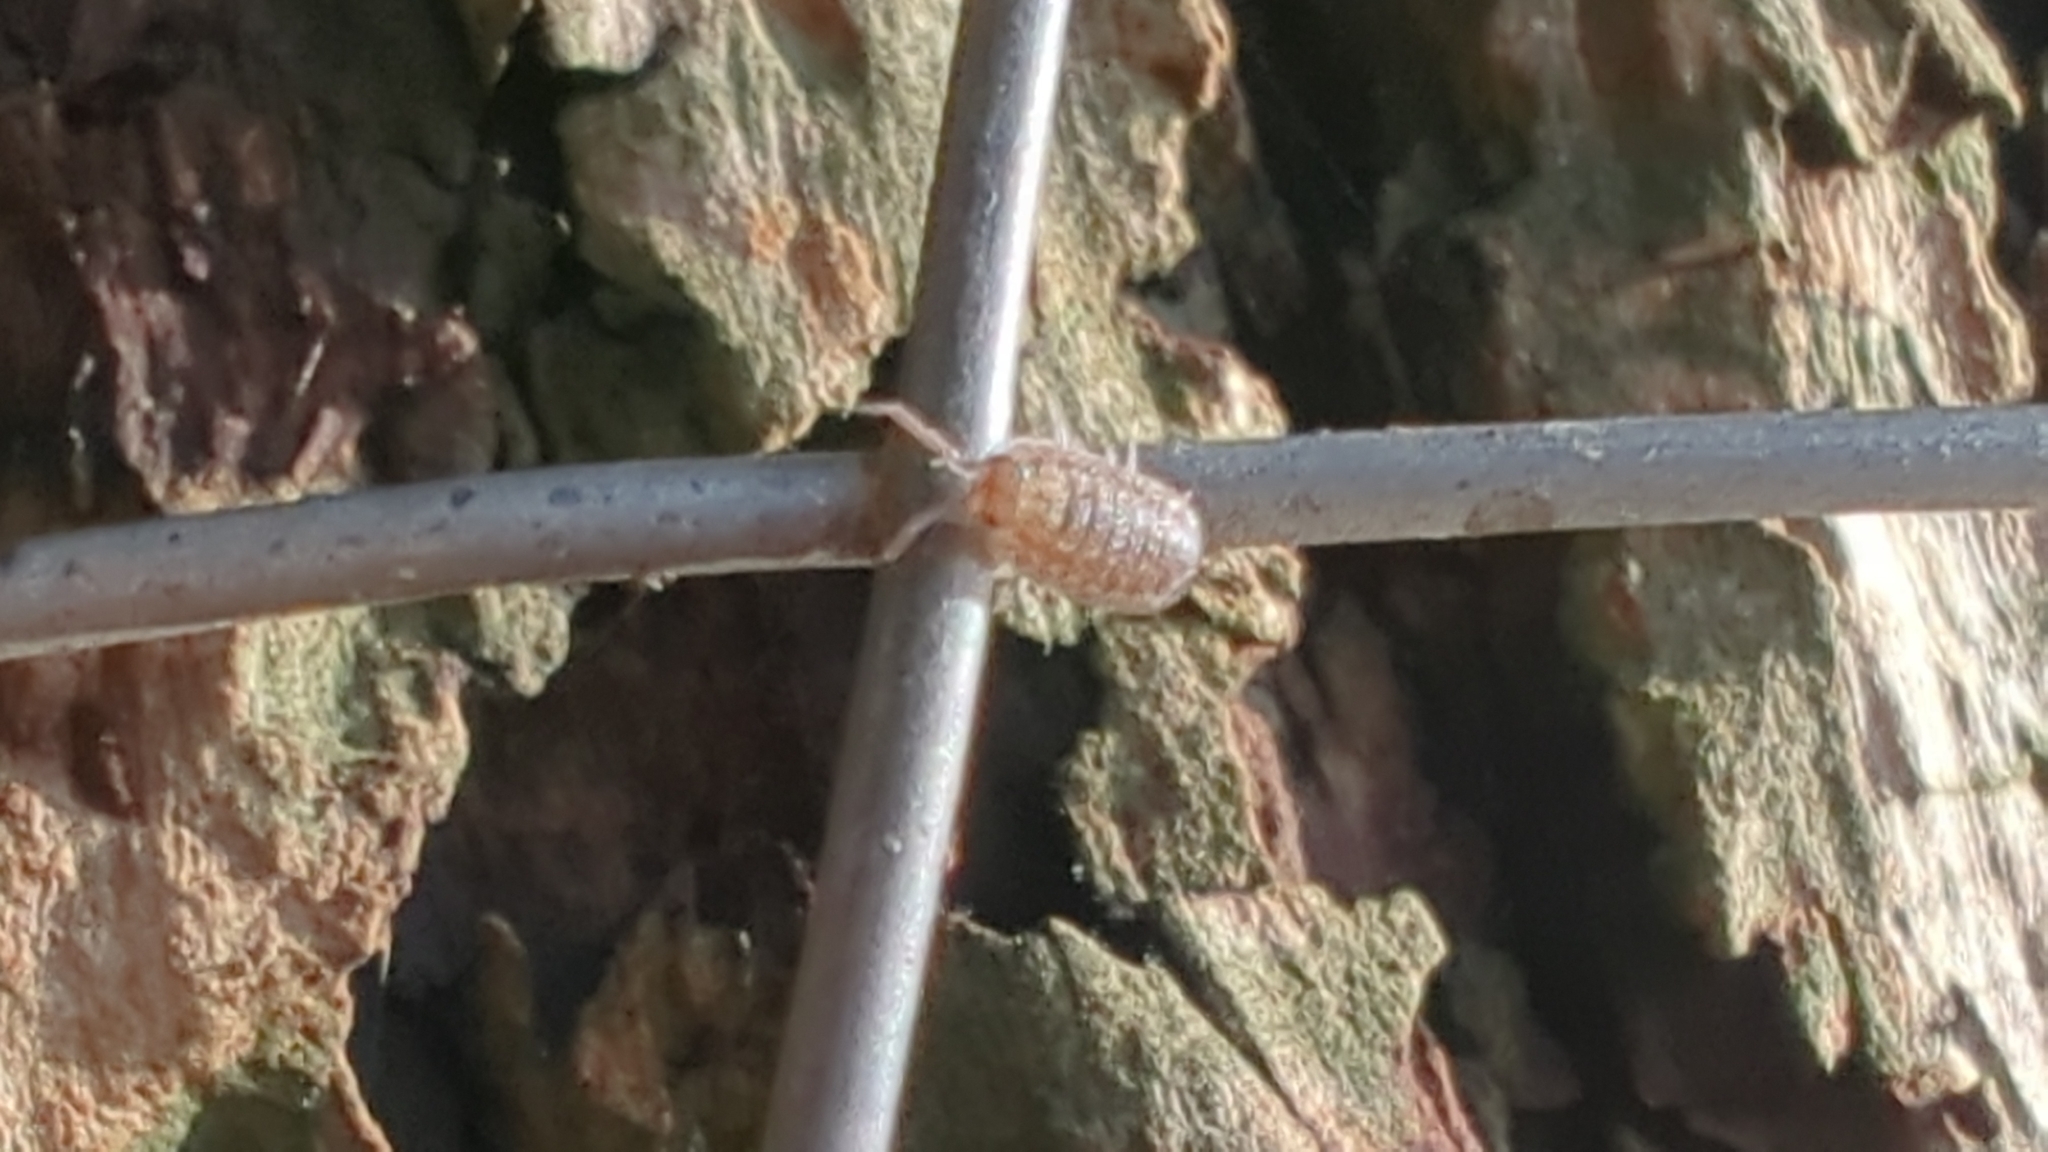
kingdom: Animalia
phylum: Arthropoda
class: Malacostraca
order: Isopoda
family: Porcellionidae
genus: Porcellio
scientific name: Porcellio scaber
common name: Common rough woodlouse
